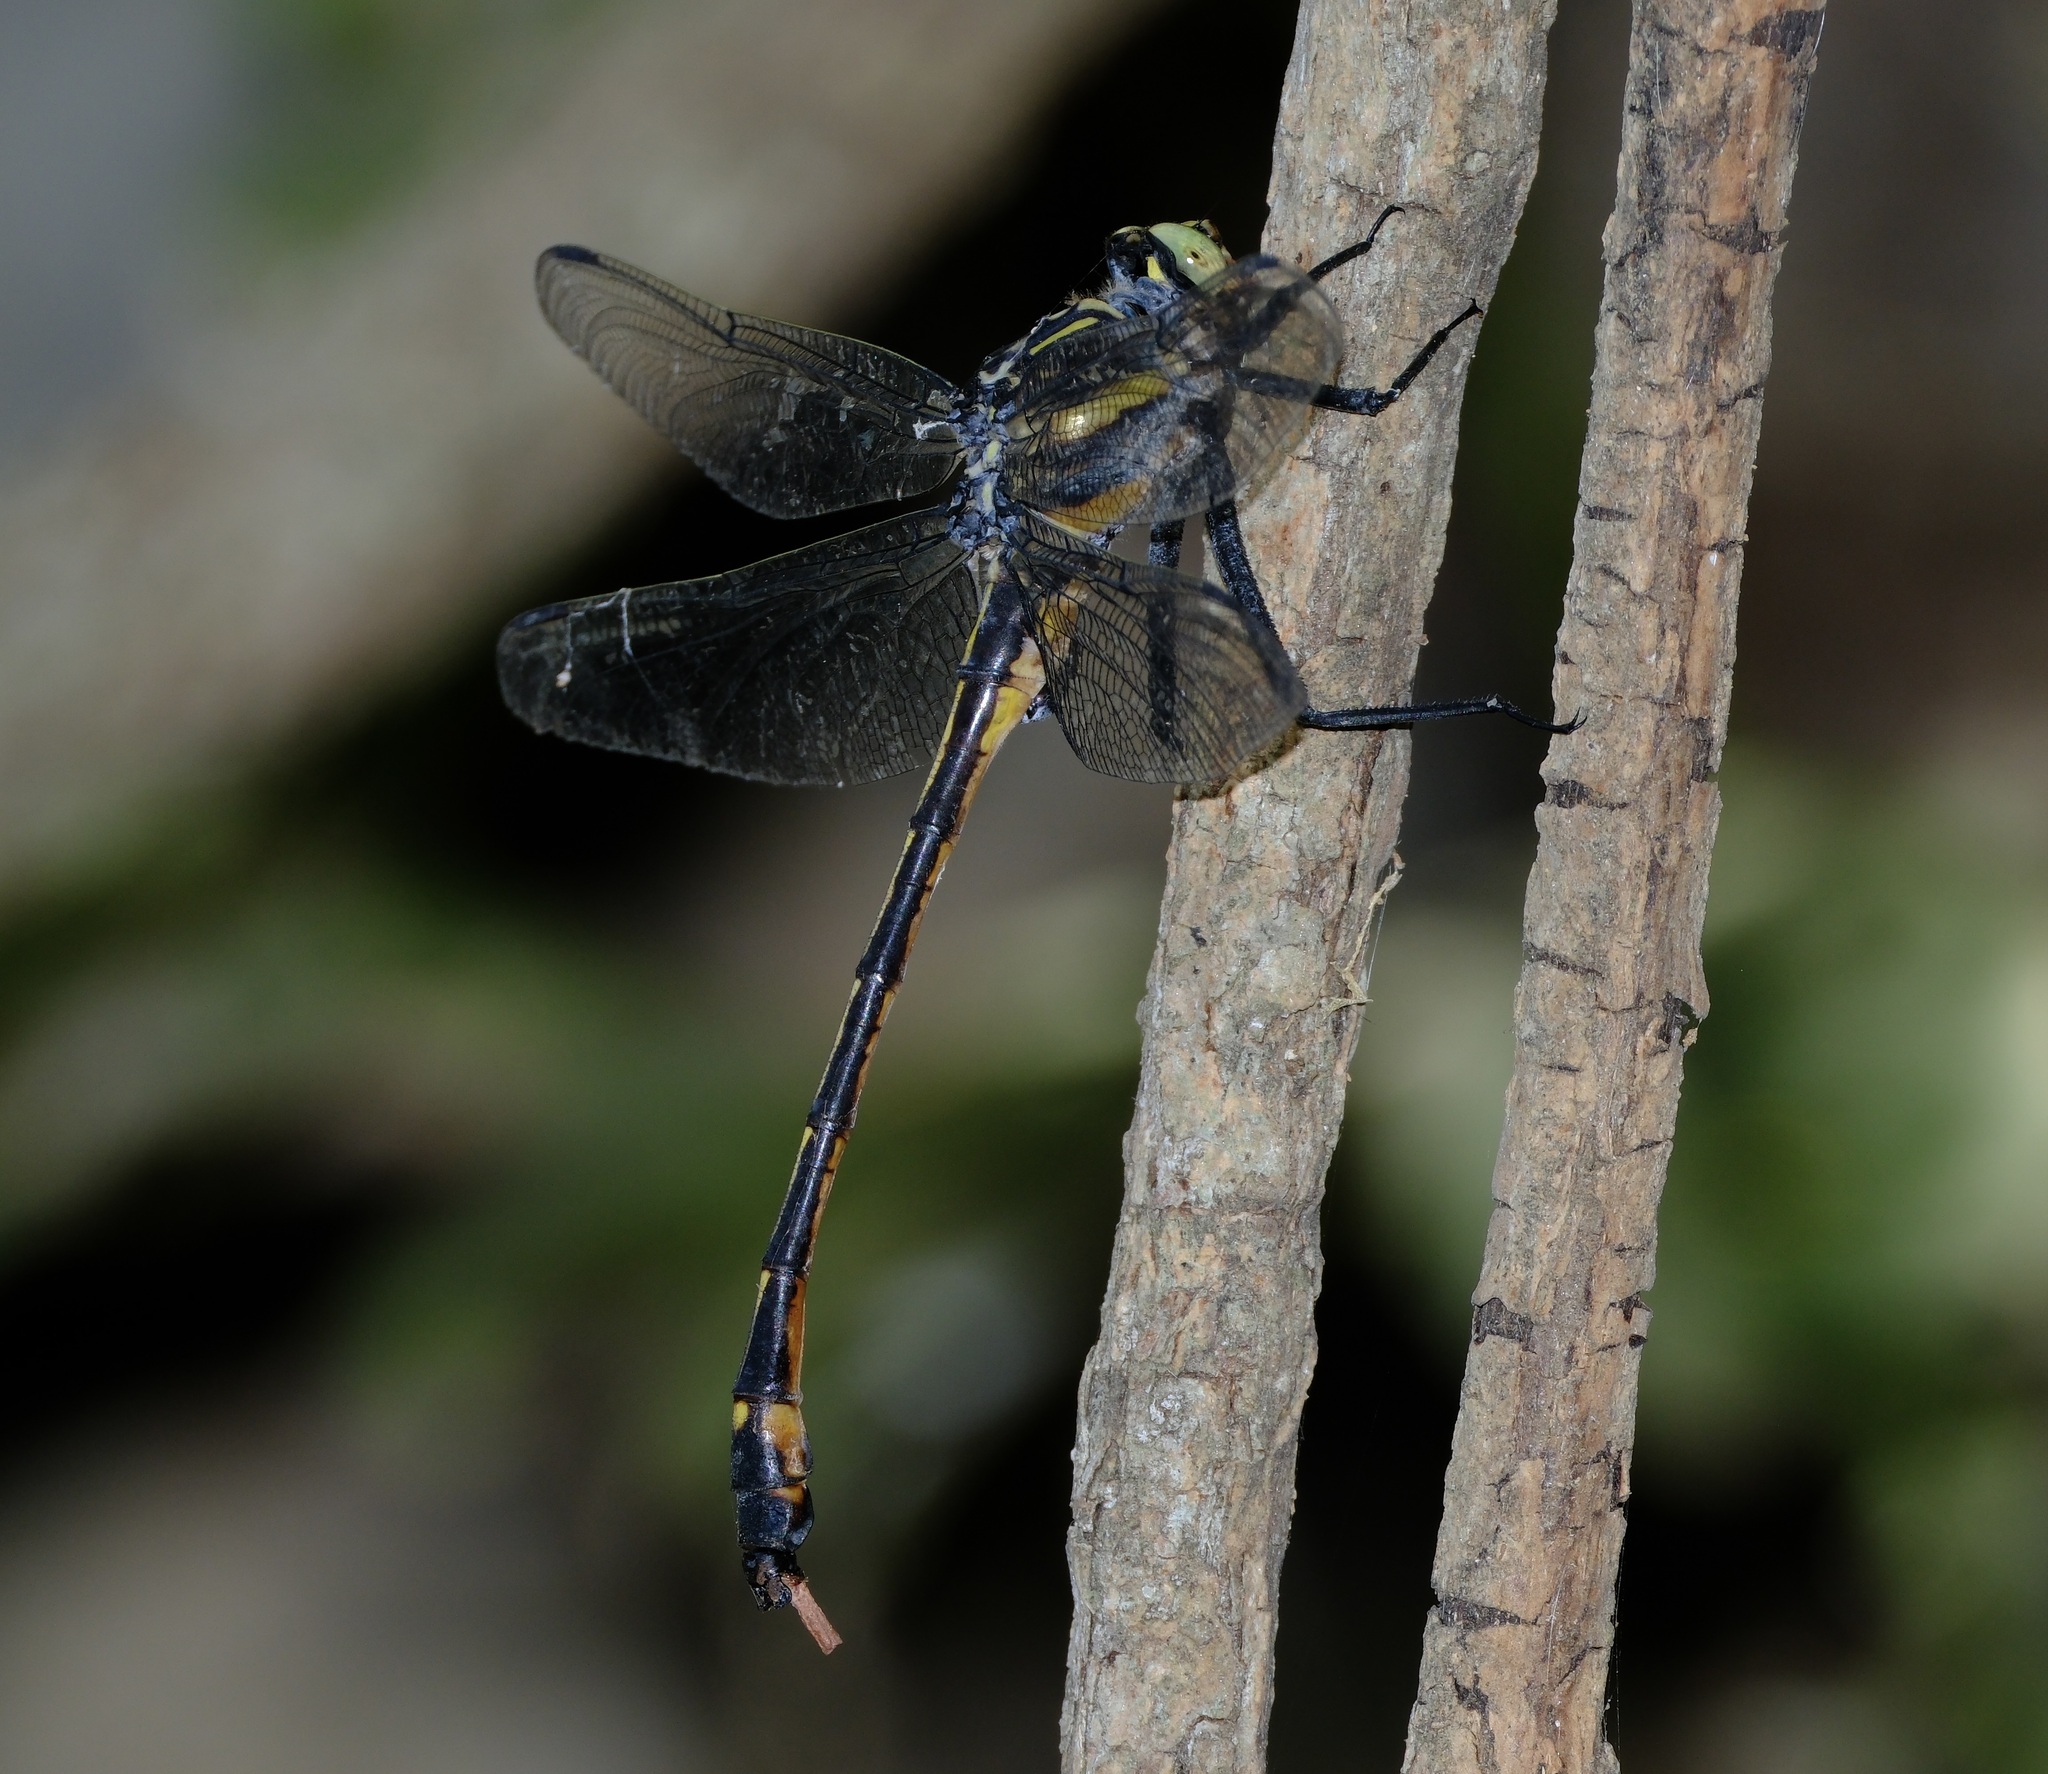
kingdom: Animalia
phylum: Arthropoda
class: Insecta
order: Odonata
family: Gomphidae
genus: Hagenius
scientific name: Hagenius brevistylus
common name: Dragonhunter
